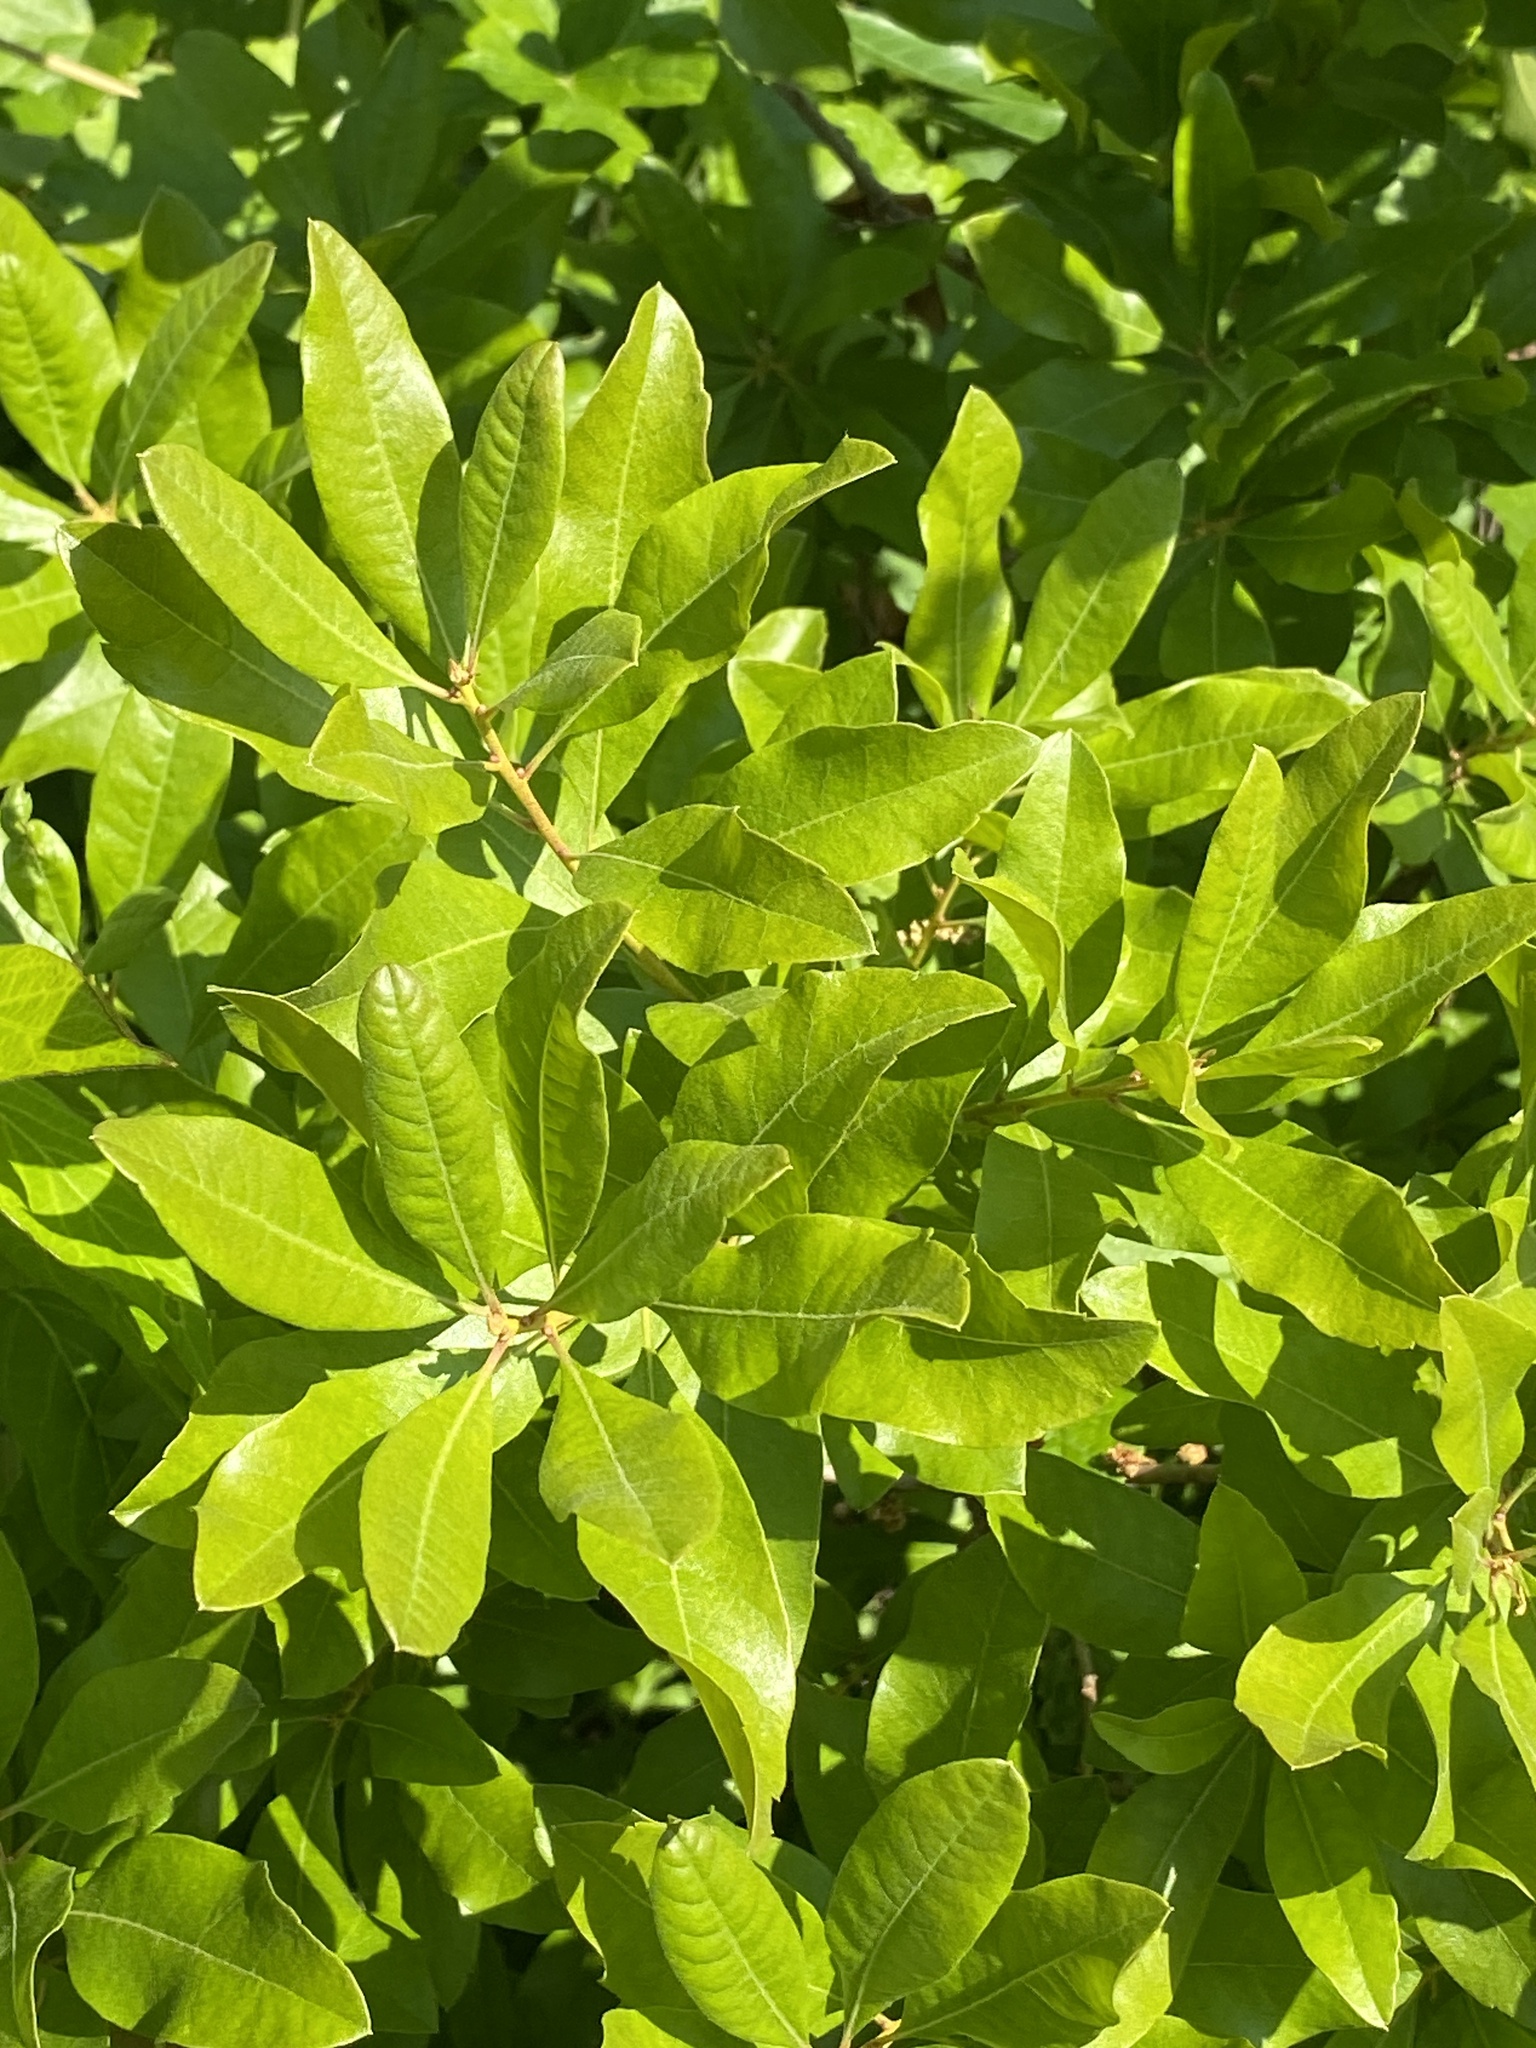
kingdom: Plantae
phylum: Tracheophyta
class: Magnoliopsida
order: Fagales
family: Myricaceae
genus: Morella
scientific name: Morella pensylvanica
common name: Northern bayberry
